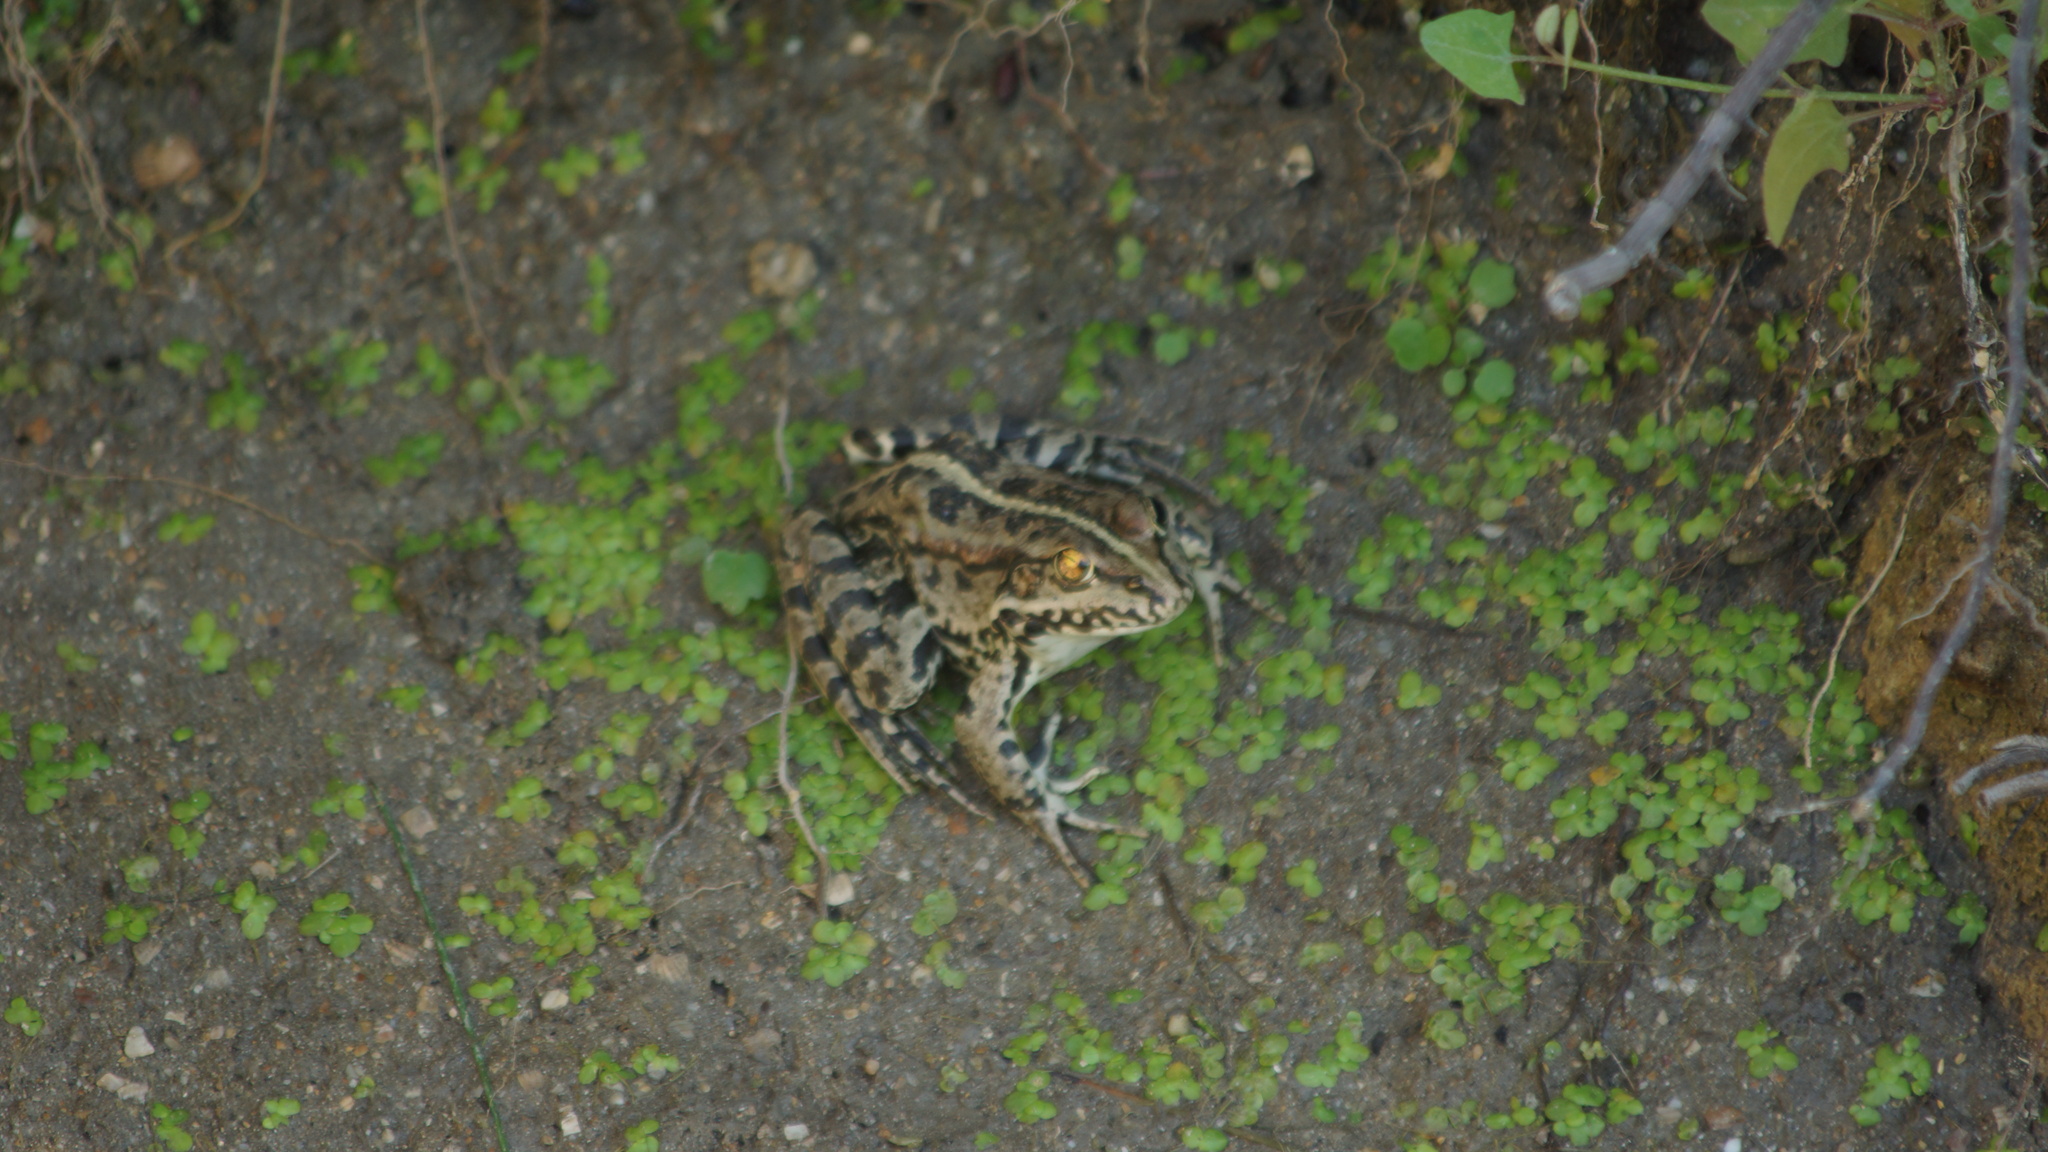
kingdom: Animalia
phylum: Chordata
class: Amphibia
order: Anura
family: Ranidae
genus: Pelophylax
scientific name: Pelophylax ridibundus
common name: Marsh frog
